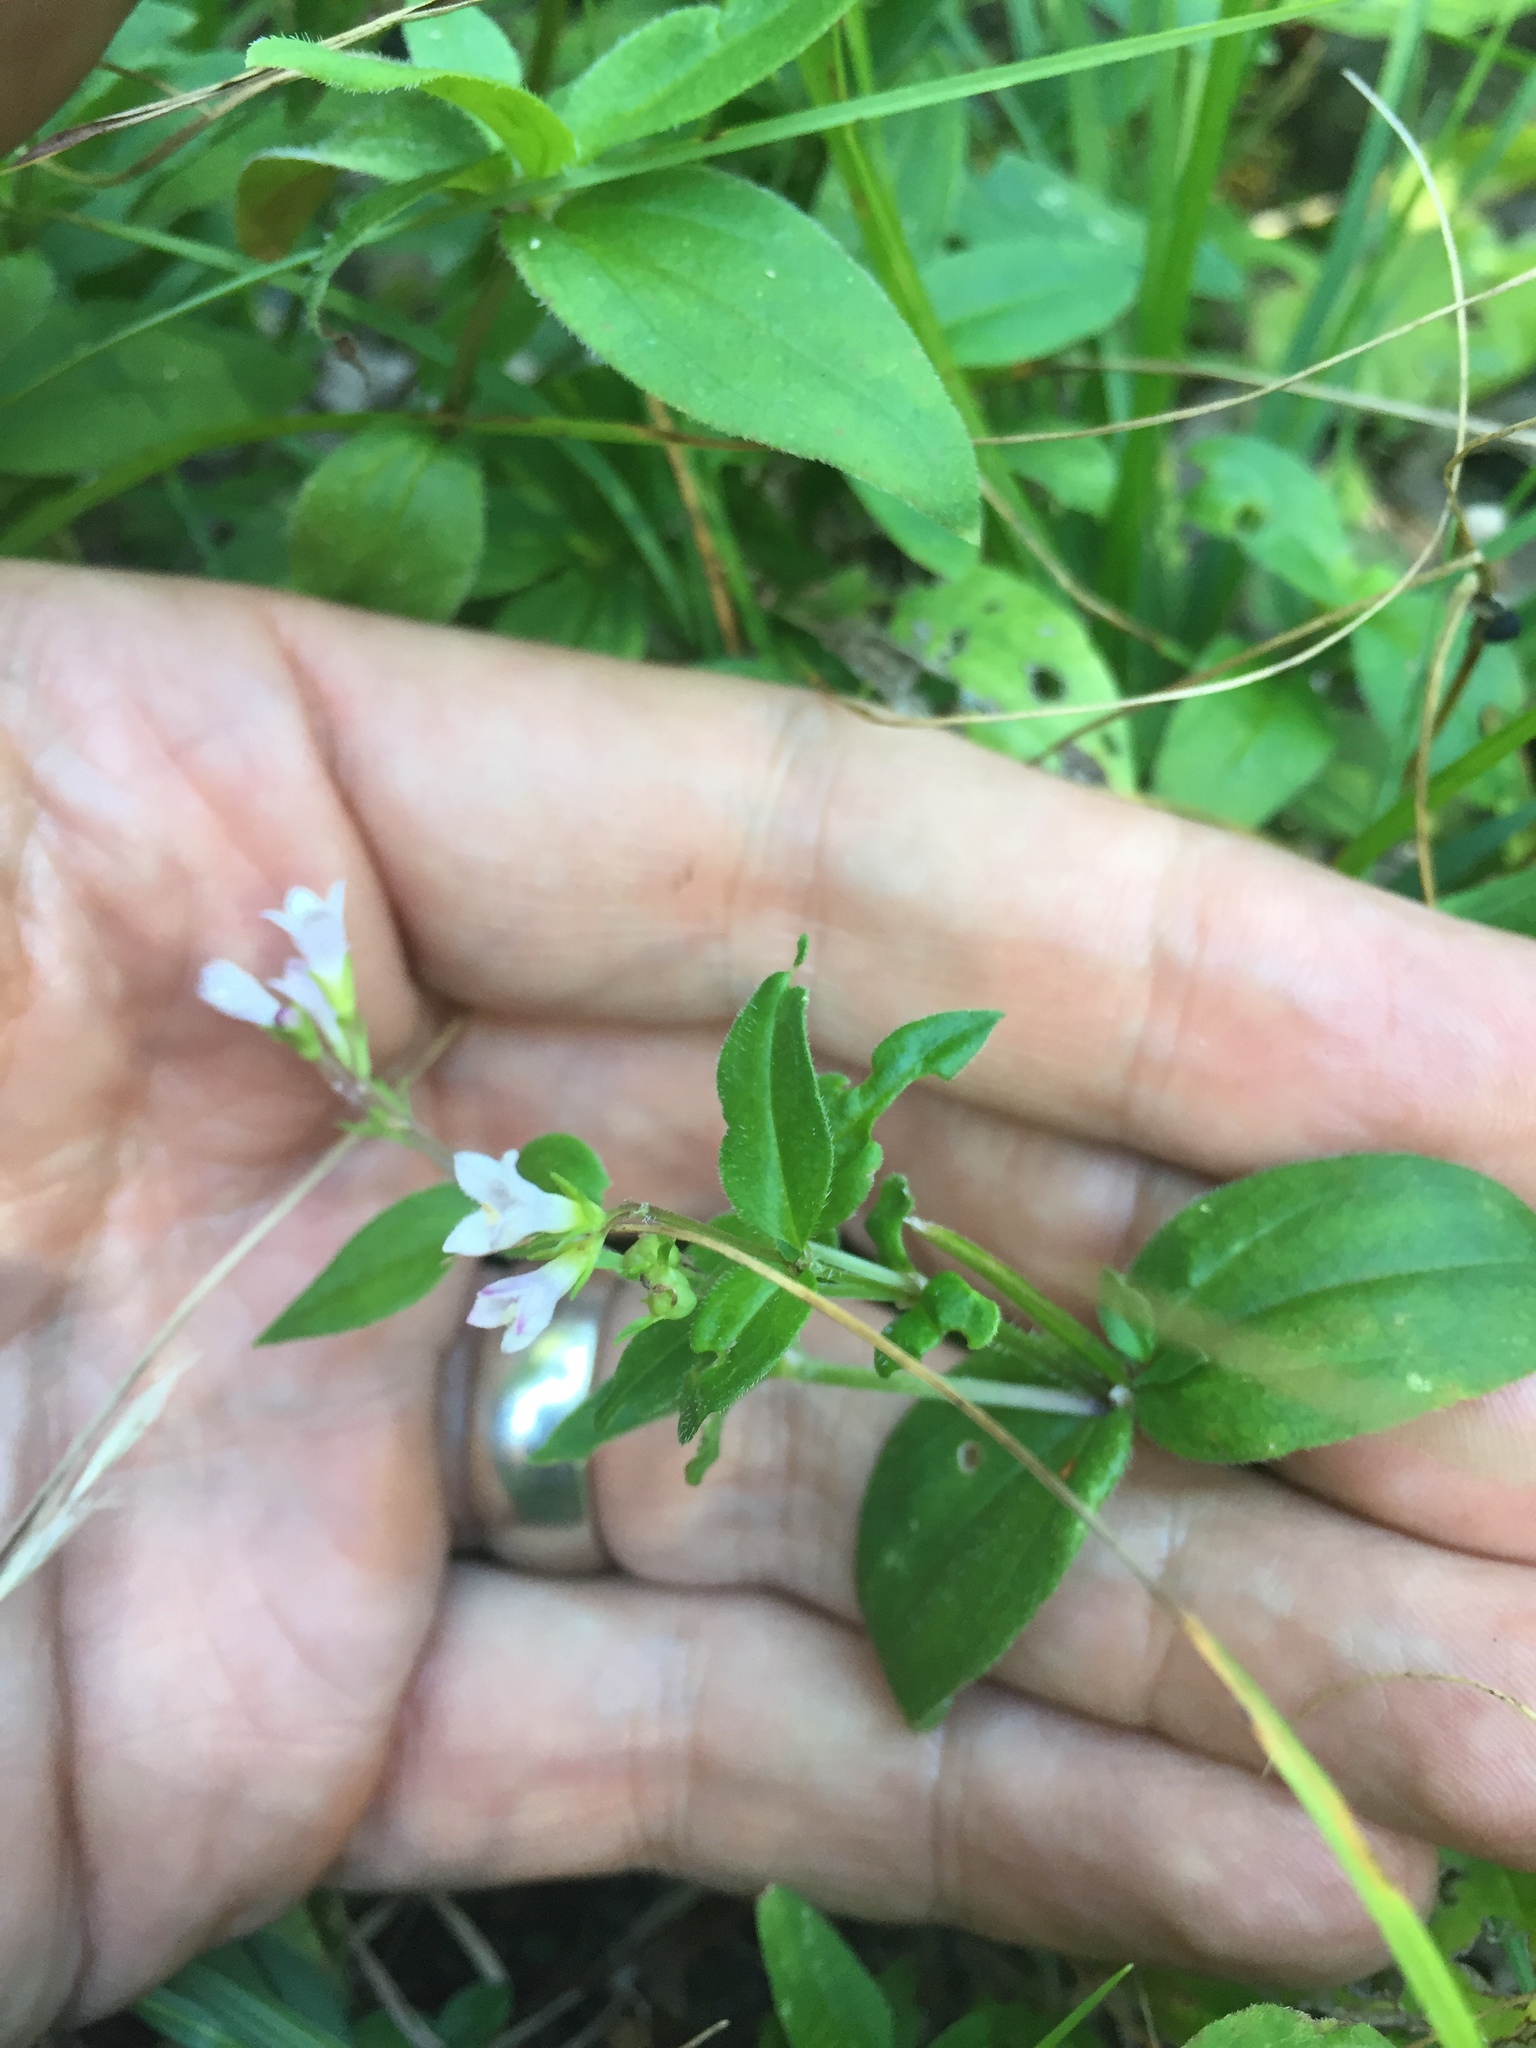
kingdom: Plantae
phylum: Tracheophyta
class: Magnoliopsida
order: Gentianales
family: Rubiaceae
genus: Houstonia
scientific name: Houstonia purpurea
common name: Summer bluet
